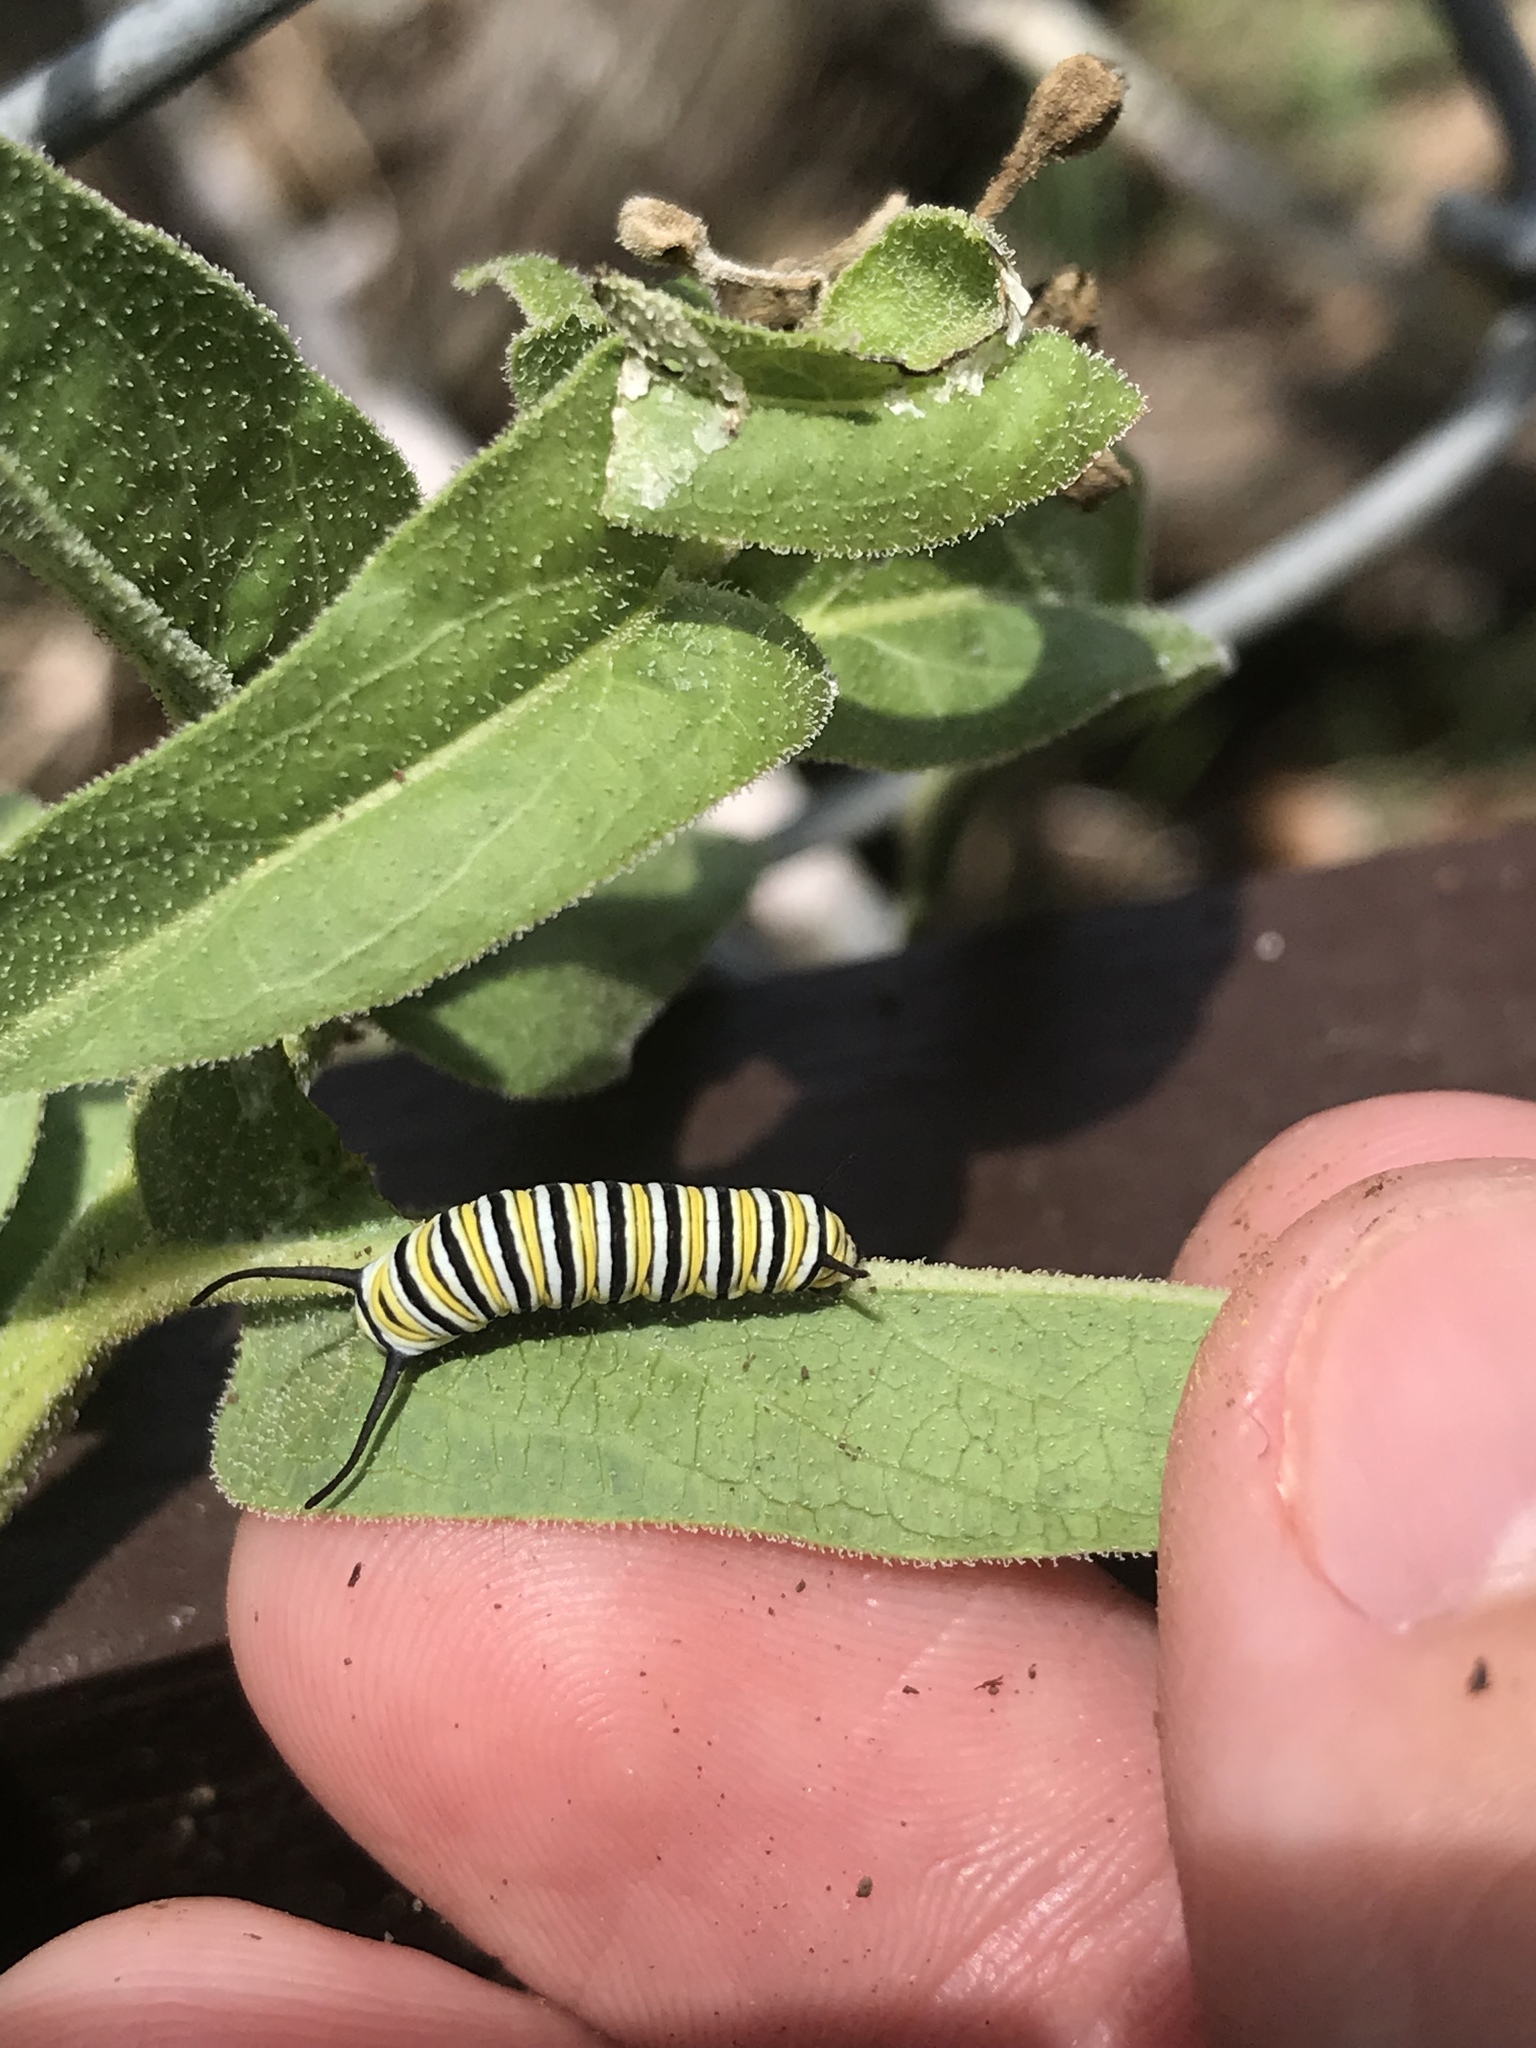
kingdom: Animalia
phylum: Arthropoda
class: Insecta
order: Lepidoptera
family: Nymphalidae
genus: Danaus
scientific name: Danaus plexippus
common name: Monarch
